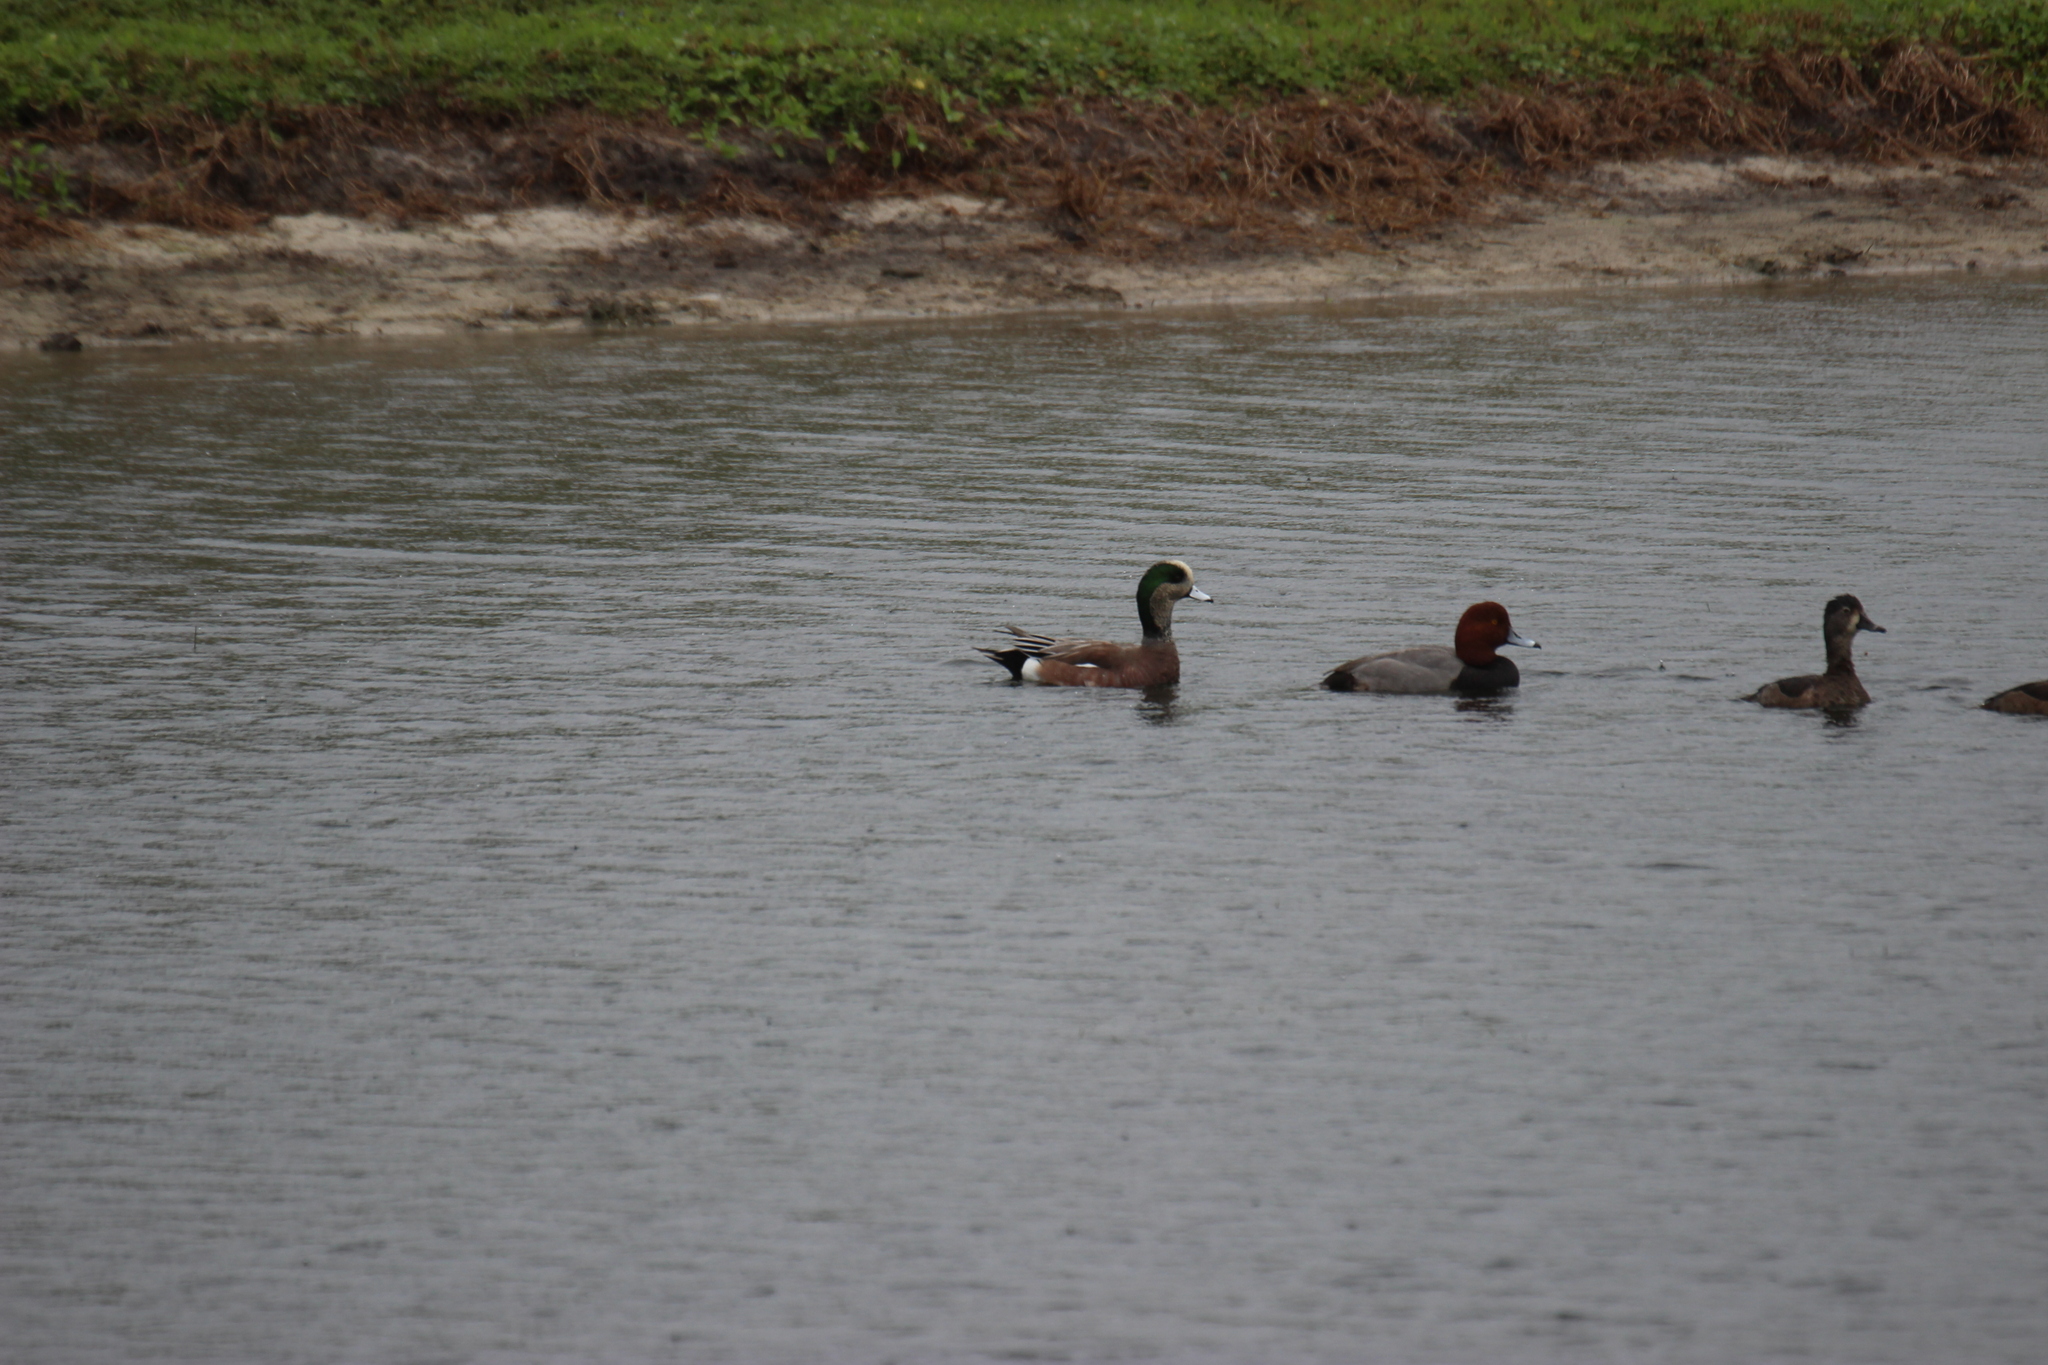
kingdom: Animalia
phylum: Chordata
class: Aves
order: Anseriformes
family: Anatidae
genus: Mareca
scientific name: Mareca americana
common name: American wigeon
